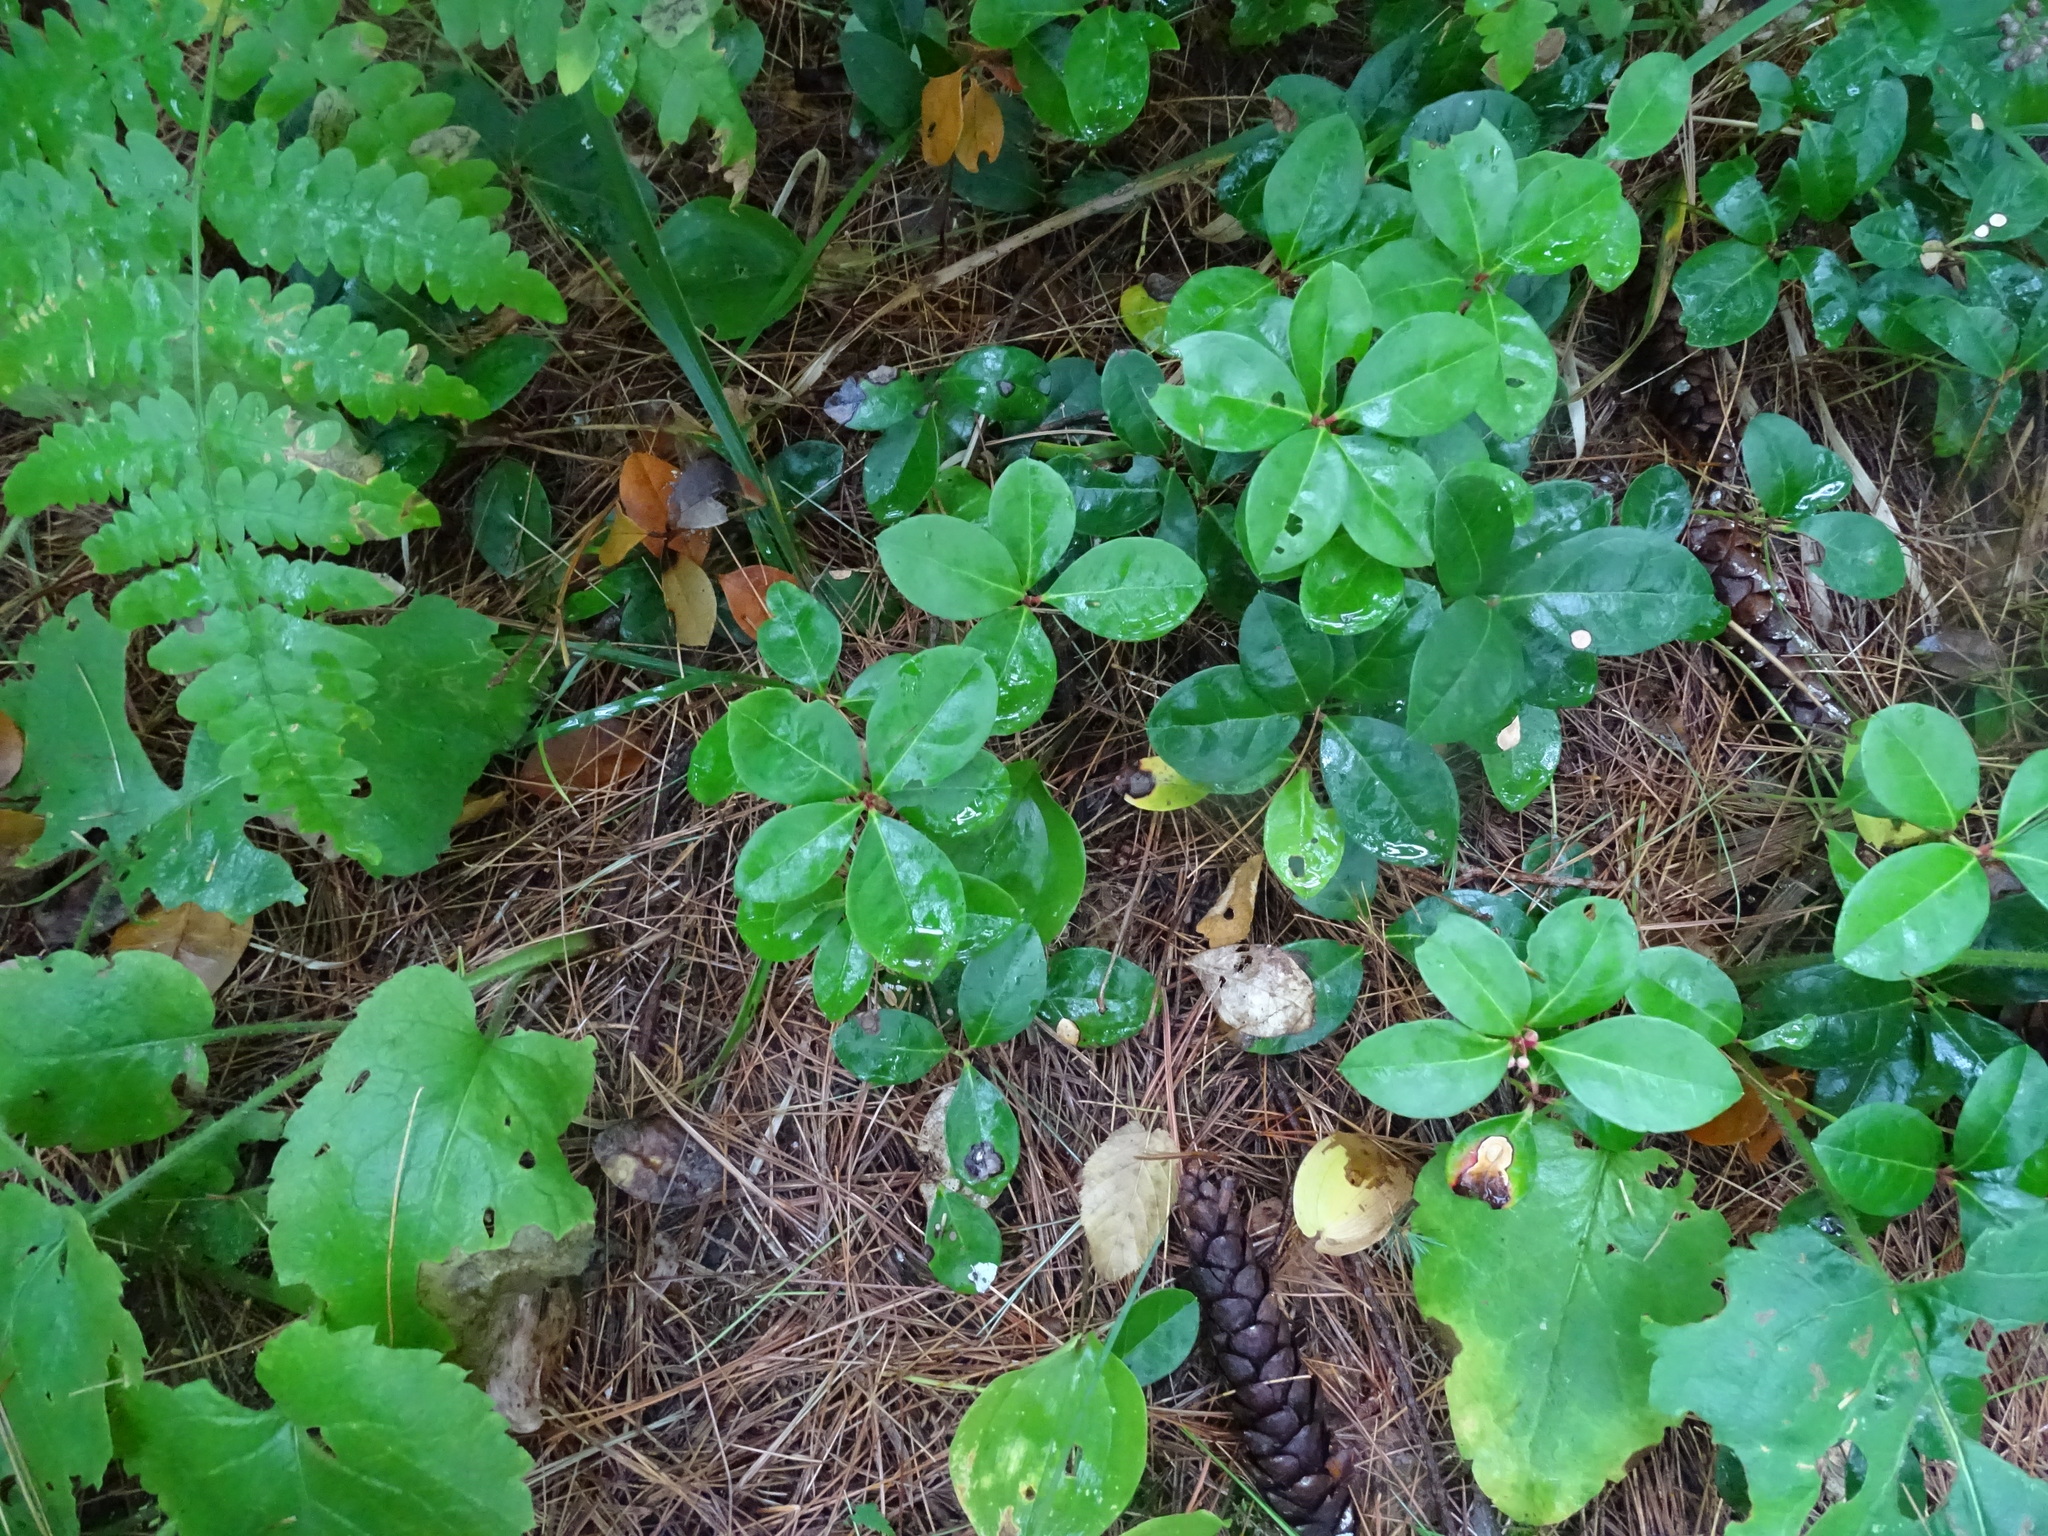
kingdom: Plantae
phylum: Tracheophyta
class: Magnoliopsida
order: Ericales
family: Ericaceae
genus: Gaultheria
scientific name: Gaultheria procumbens
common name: Checkerberry
